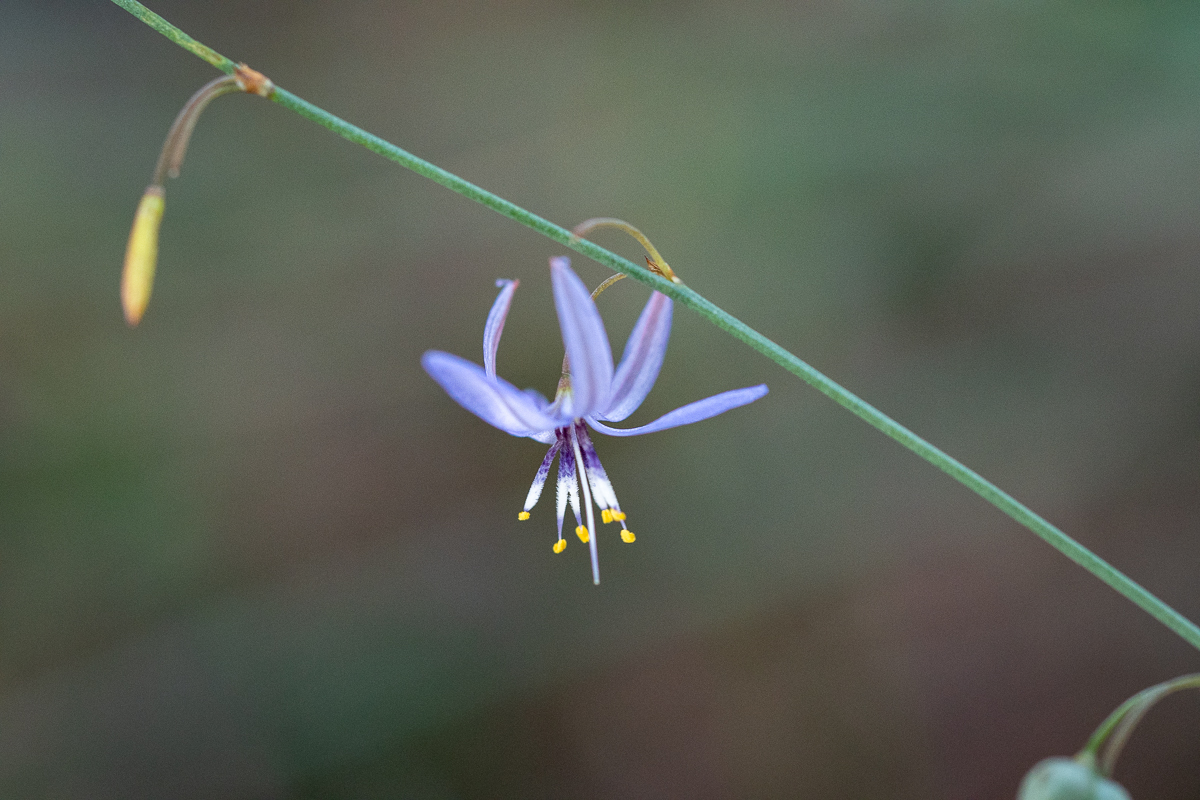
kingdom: Plantae
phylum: Tracheophyta
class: Liliopsida
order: Asparagales
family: Asphodelaceae
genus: Caesia
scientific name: Caesia contorta
